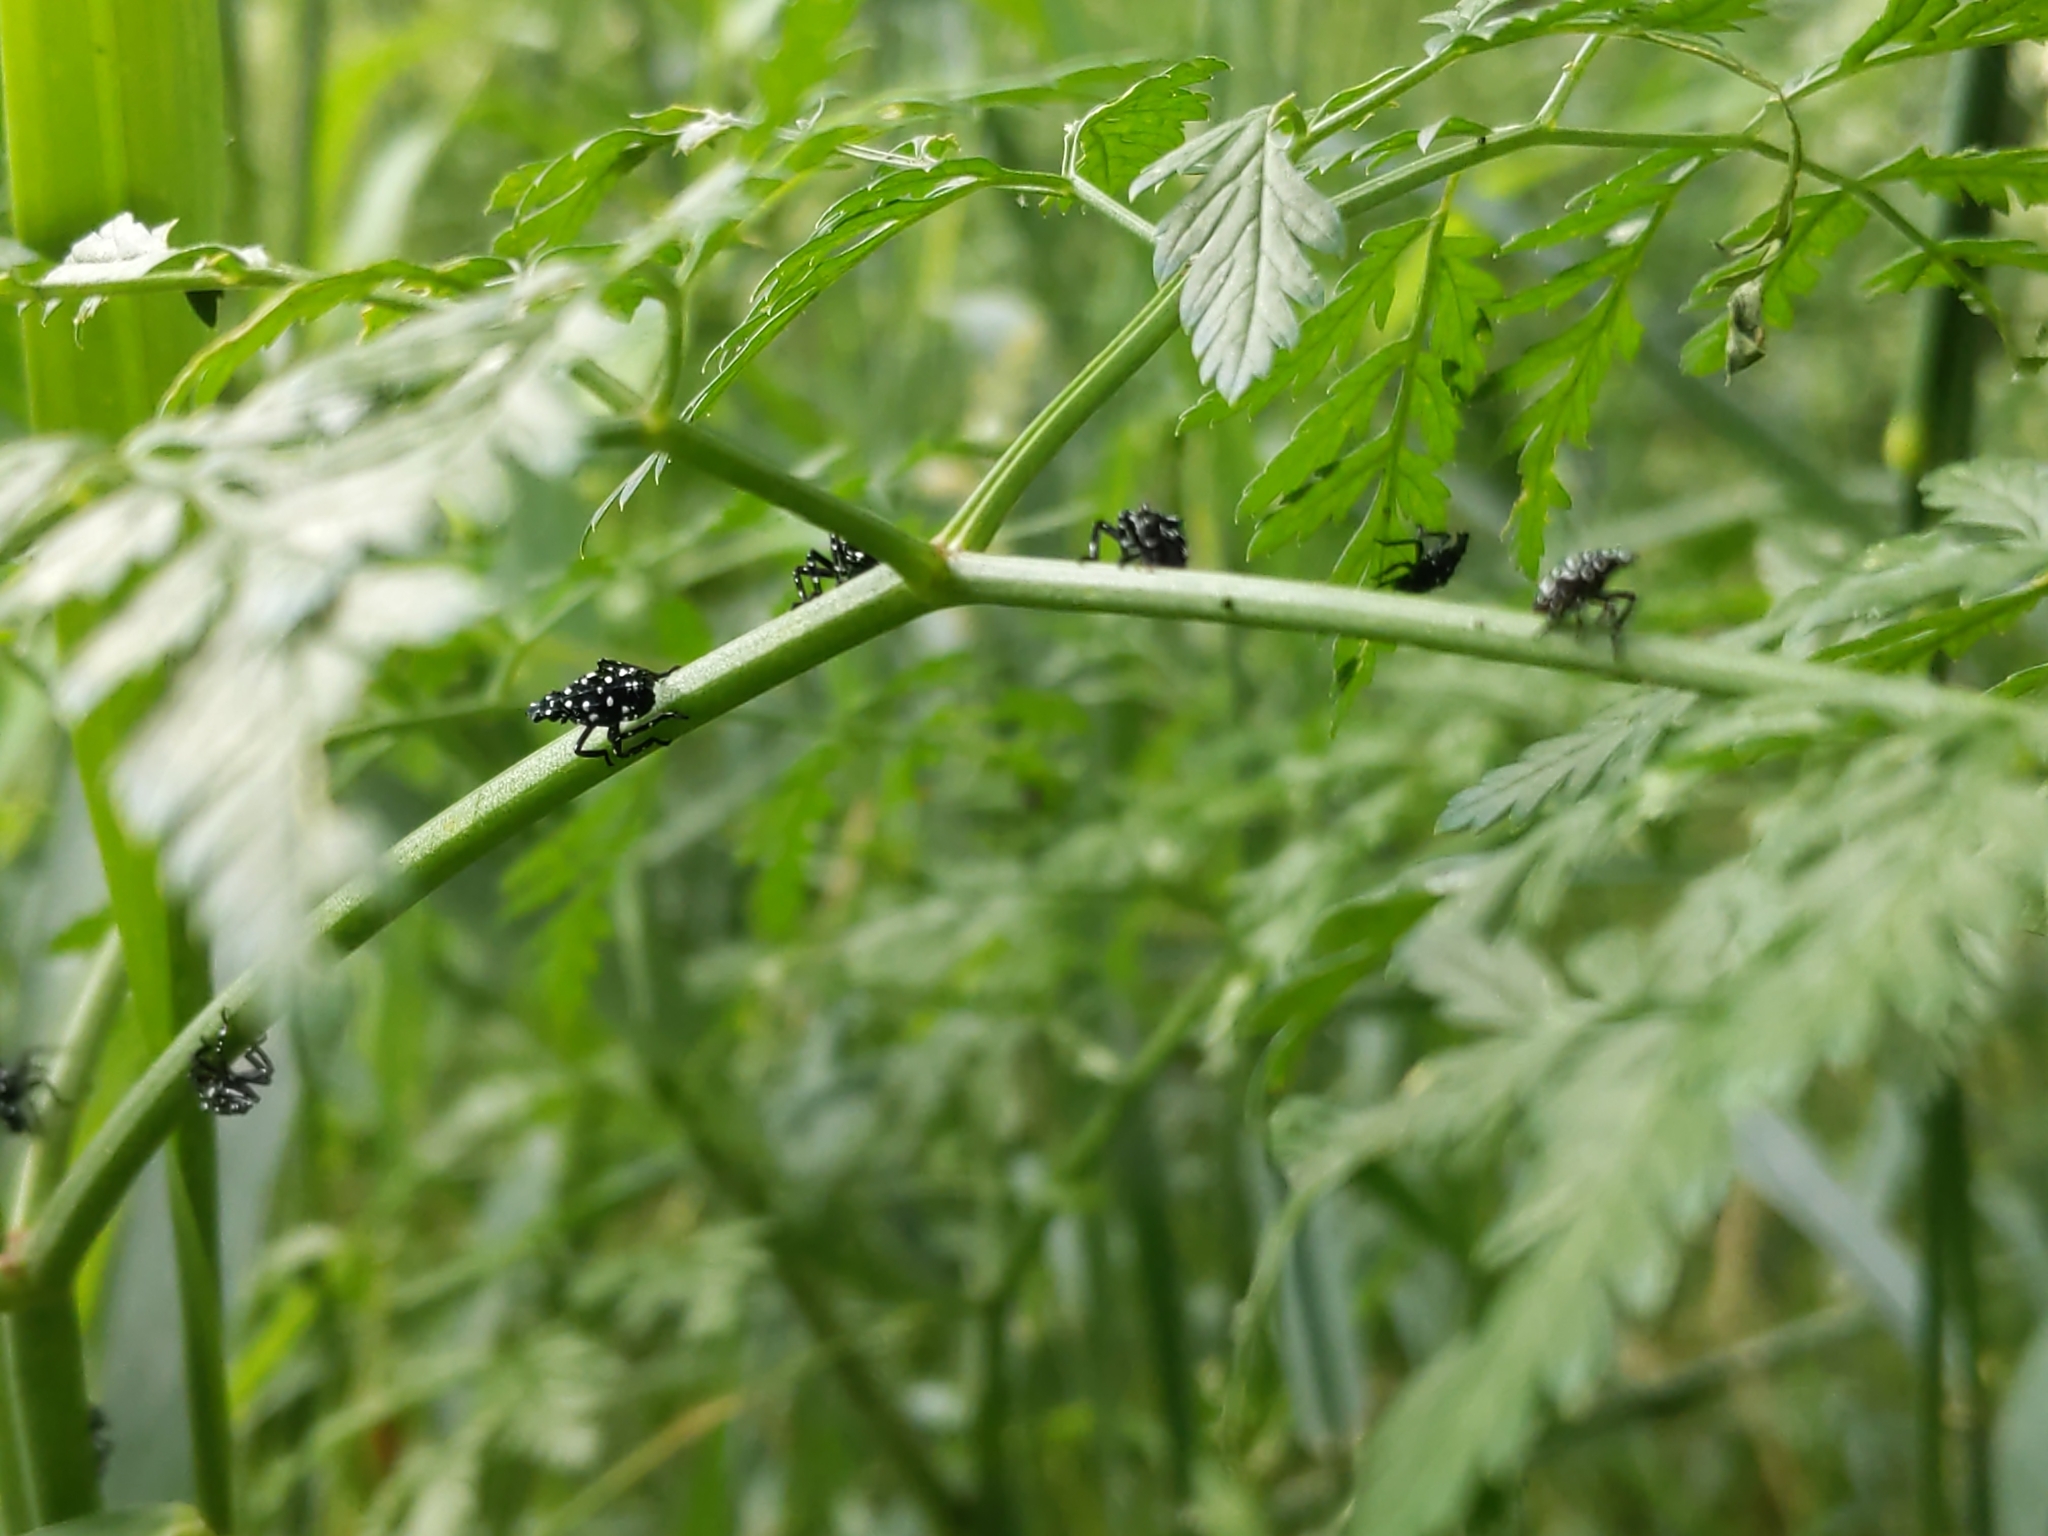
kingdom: Animalia
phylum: Arthropoda
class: Insecta
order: Hemiptera
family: Fulgoridae
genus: Lycorma
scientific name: Lycorma delicatula
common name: Spotted lanternfly
